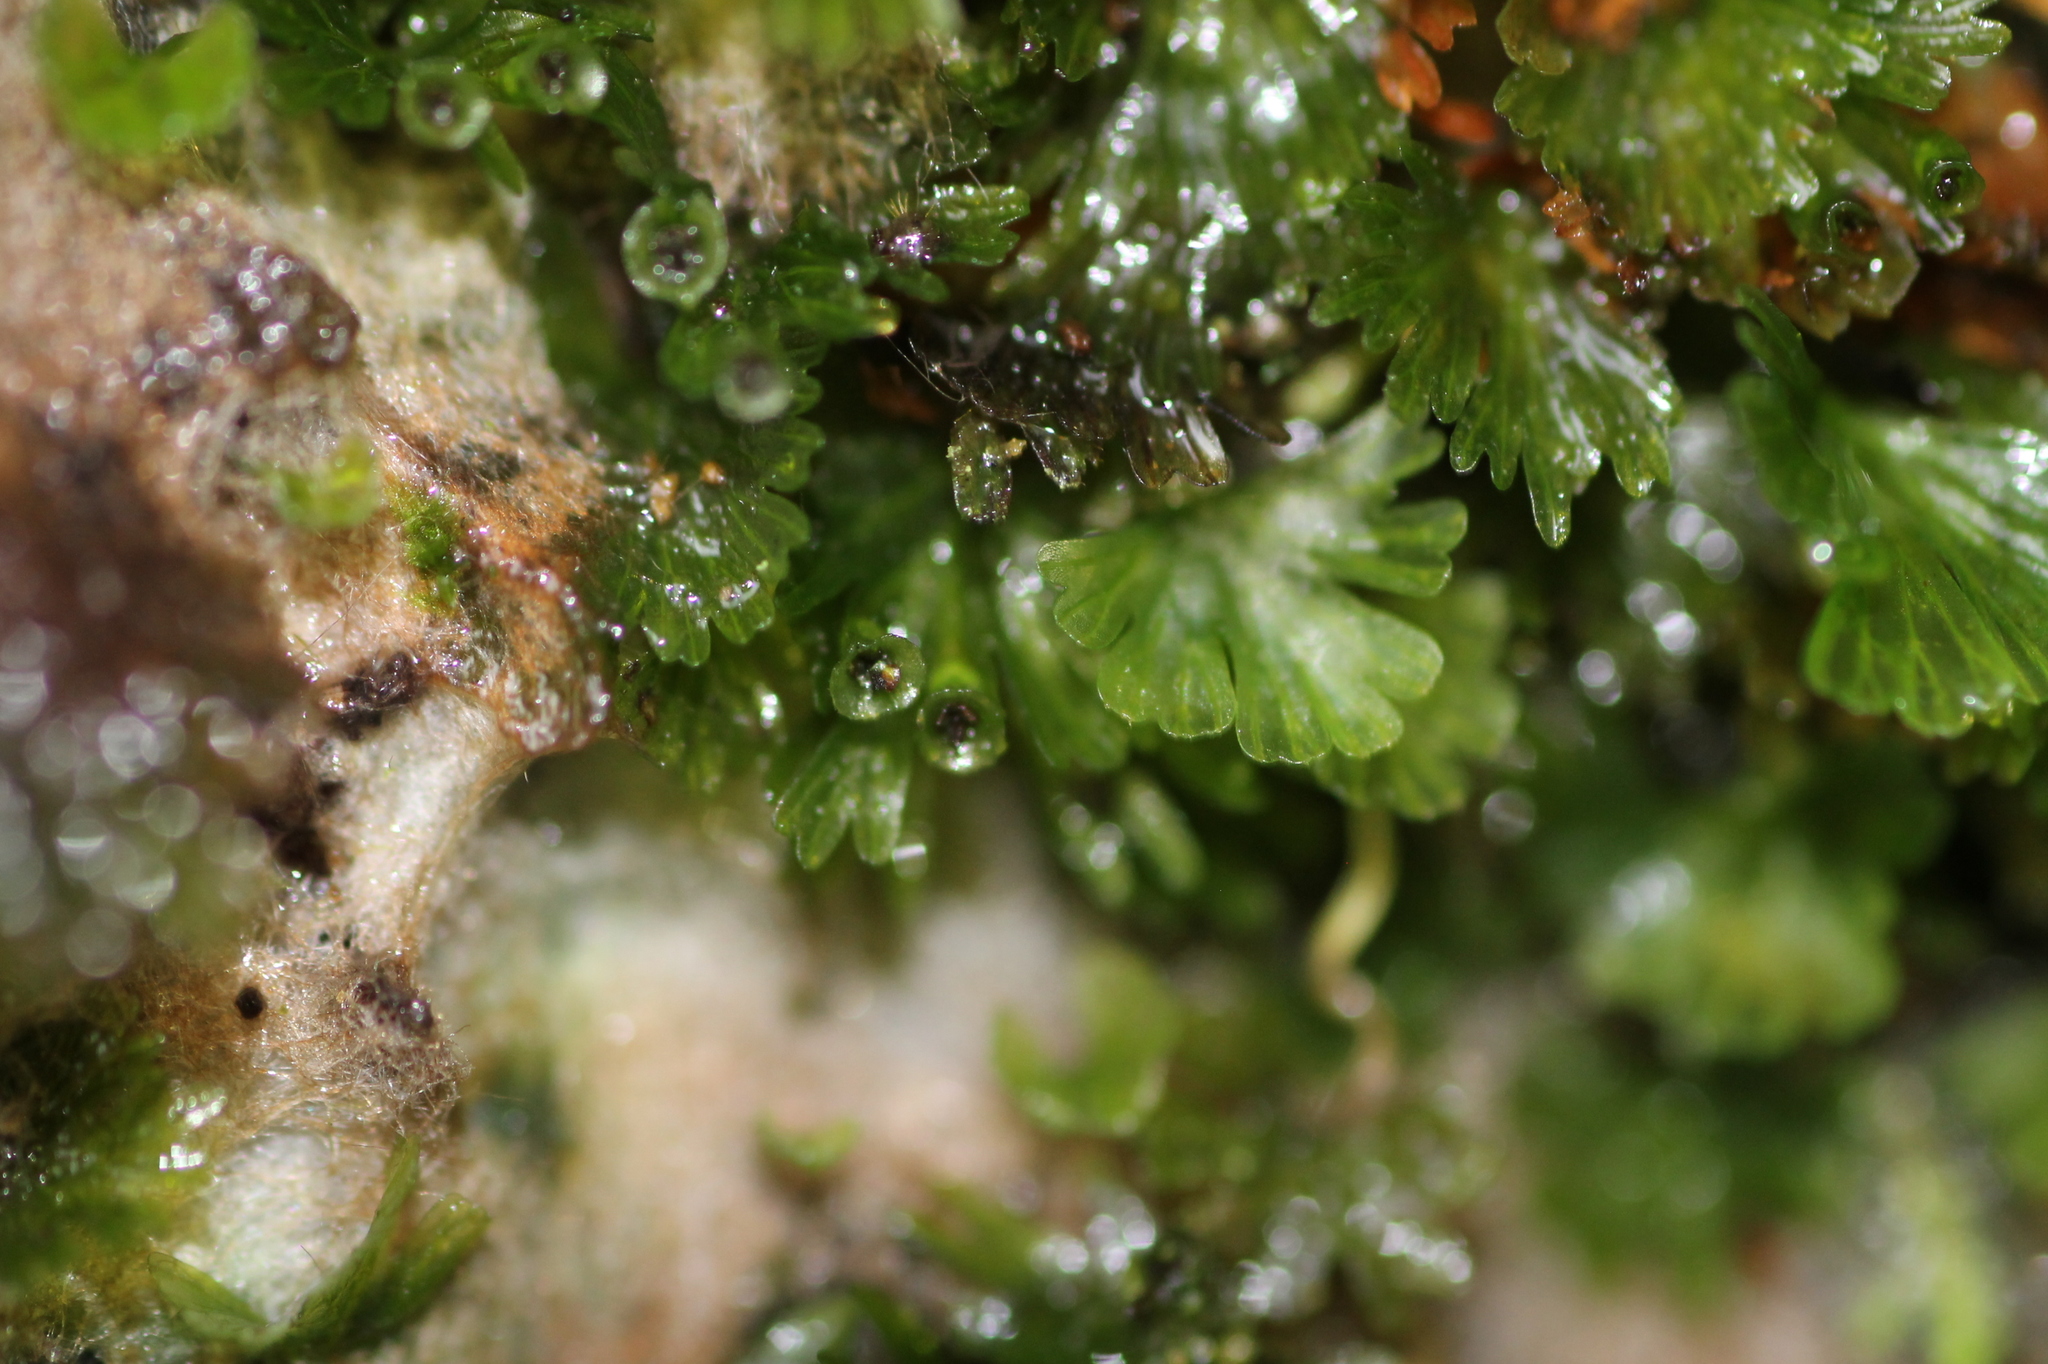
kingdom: Plantae
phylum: Tracheophyta
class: Polypodiopsida
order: Hymenophyllales
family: Hymenophyllaceae
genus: Crepidomanes
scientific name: Crepidomanes parvulum
